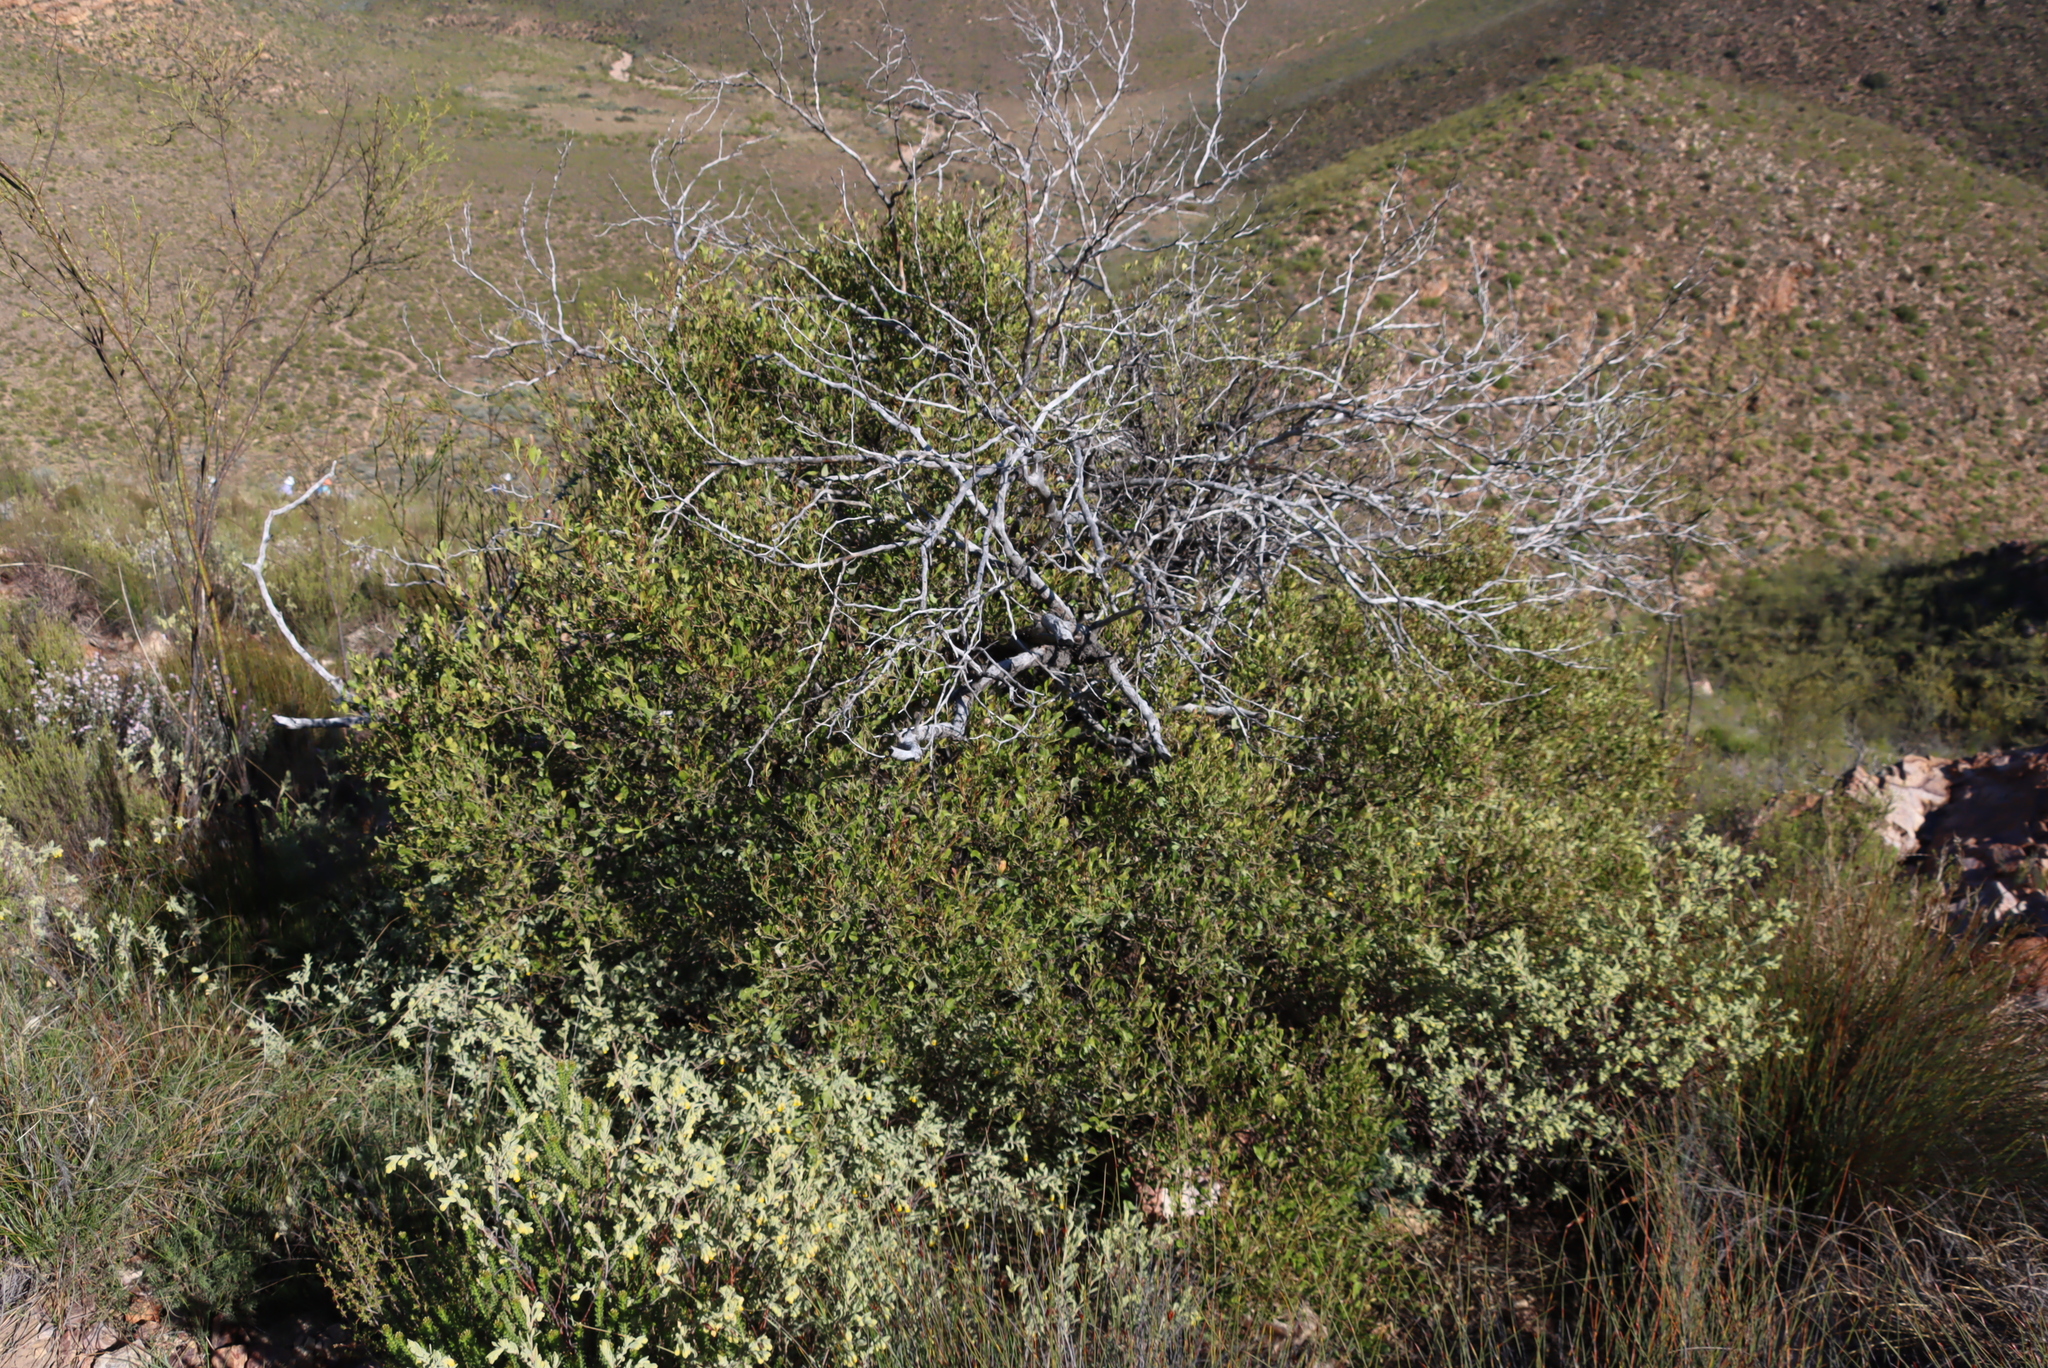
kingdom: Plantae
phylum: Tracheophyta
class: Magnoliopsida
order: Sapindales
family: Anacardiaceae
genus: Searsia
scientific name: Searsia pallens
